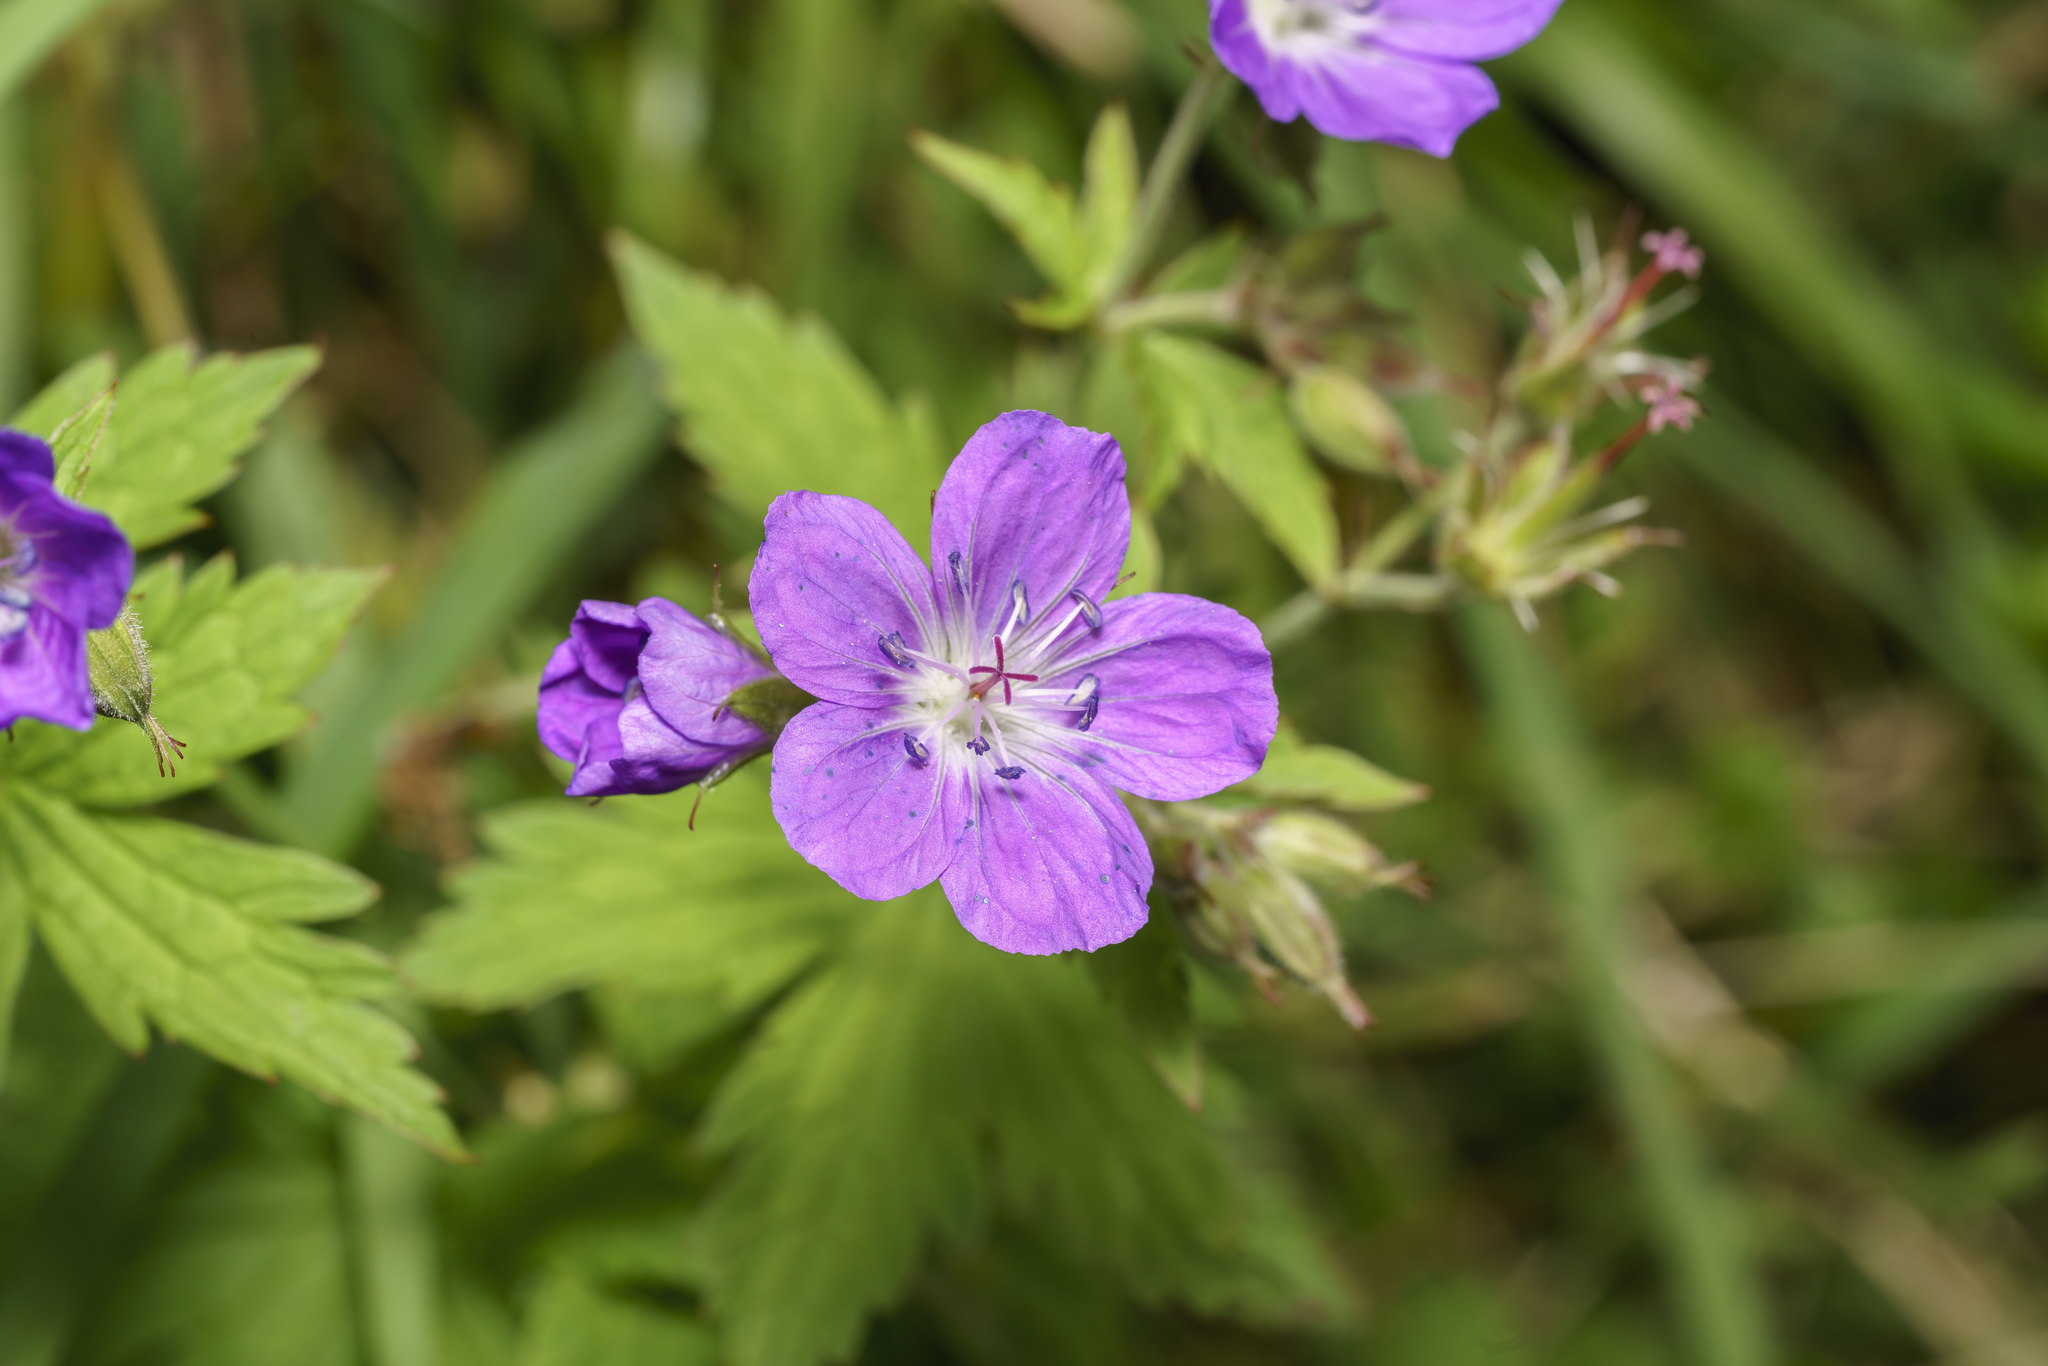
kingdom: Plantae
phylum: Tracheophyta
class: Magnoliopsida
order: Geraniales
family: Geraniaceae
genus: Geranium
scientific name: Geranium sylvaticum
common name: Wood crane's-bill
